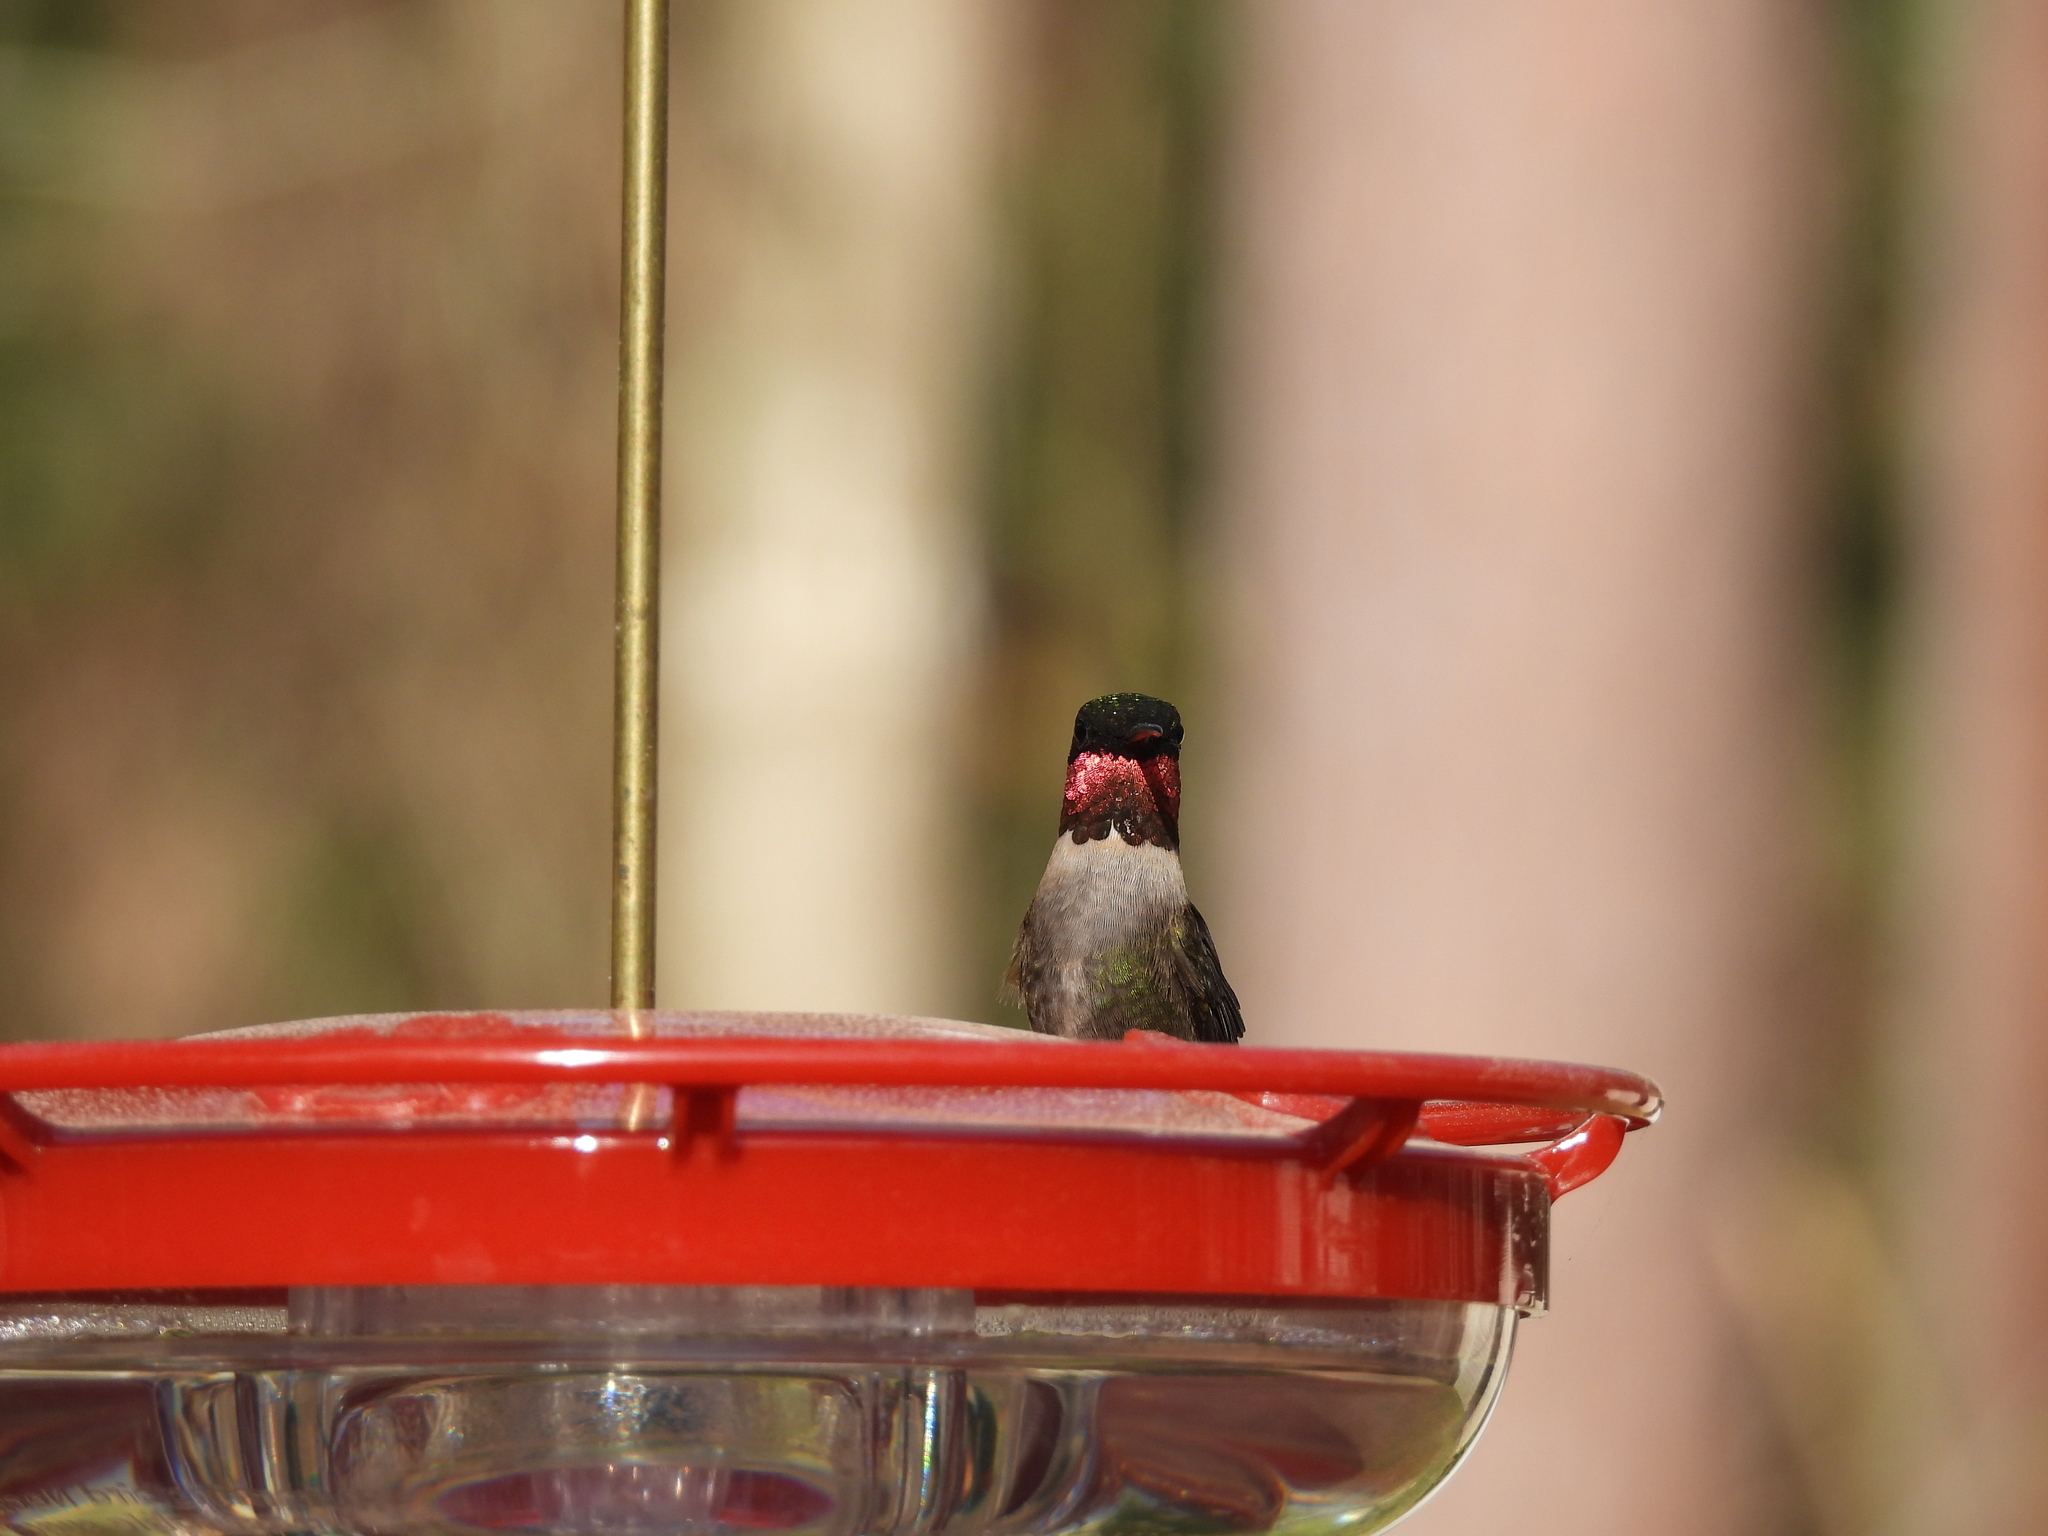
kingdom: Animalia
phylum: Chordata
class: Aves
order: Apodiformes
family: Trochilidae
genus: Archilochus
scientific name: Archilochus colubris
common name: Ruby-throated hummingbird
